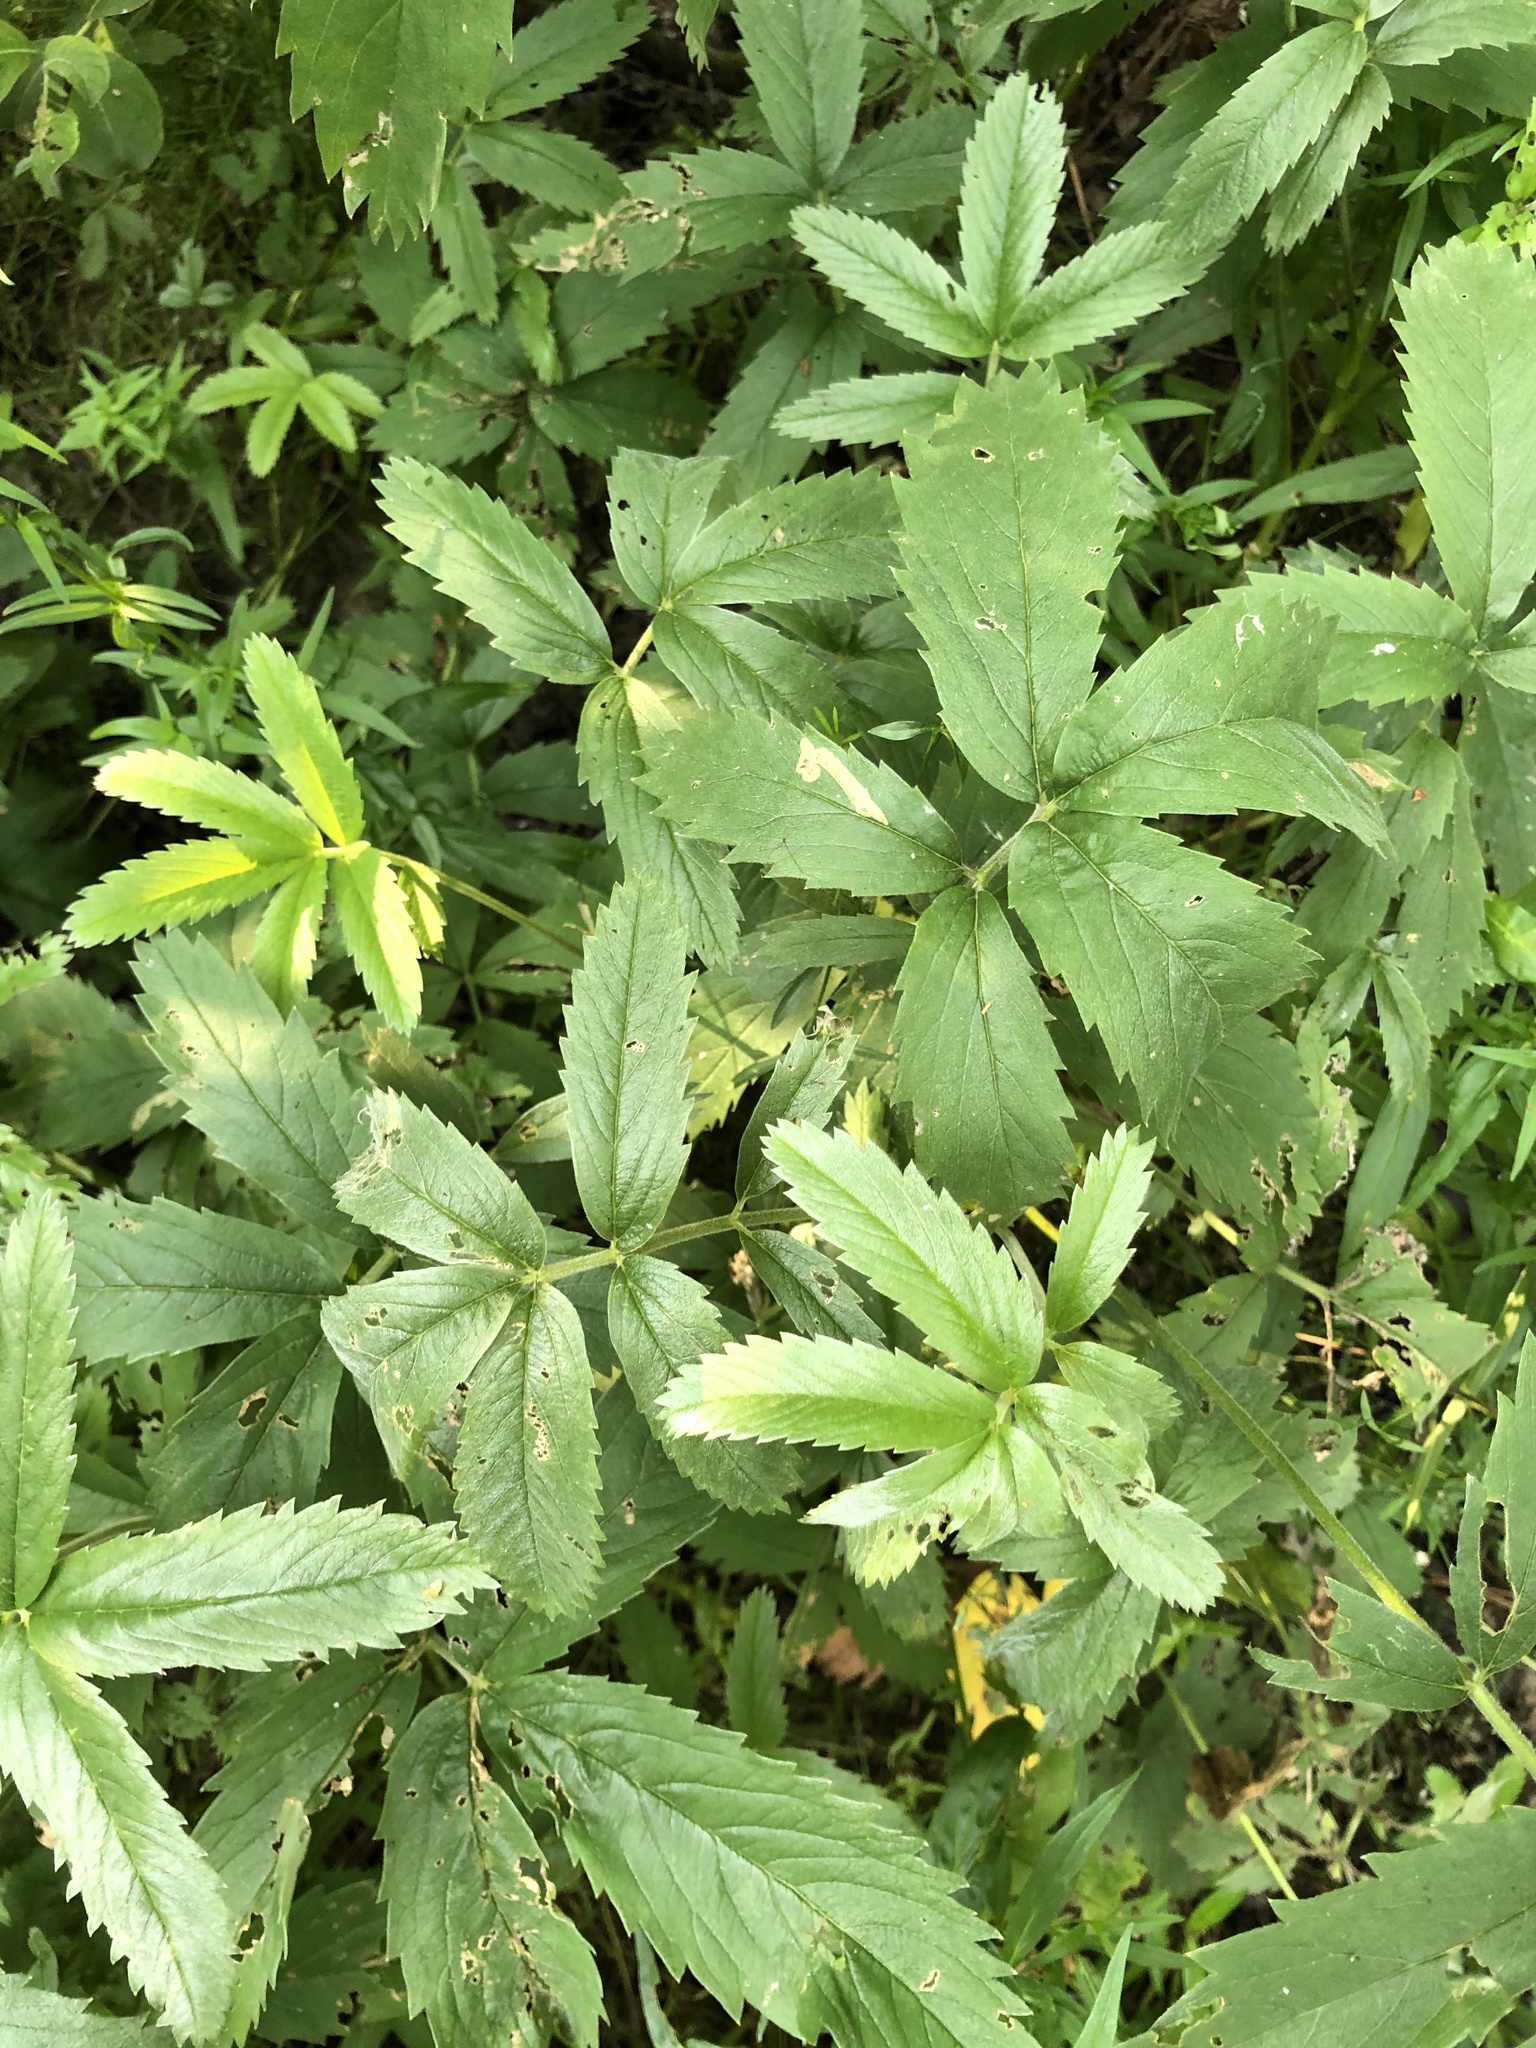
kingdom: Plantae
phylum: Tracheophyta
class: Magnoliopsida
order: Rosales
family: Rosaceae
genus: Comarum
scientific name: Comarum palustre
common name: Marsh cinquefoil
